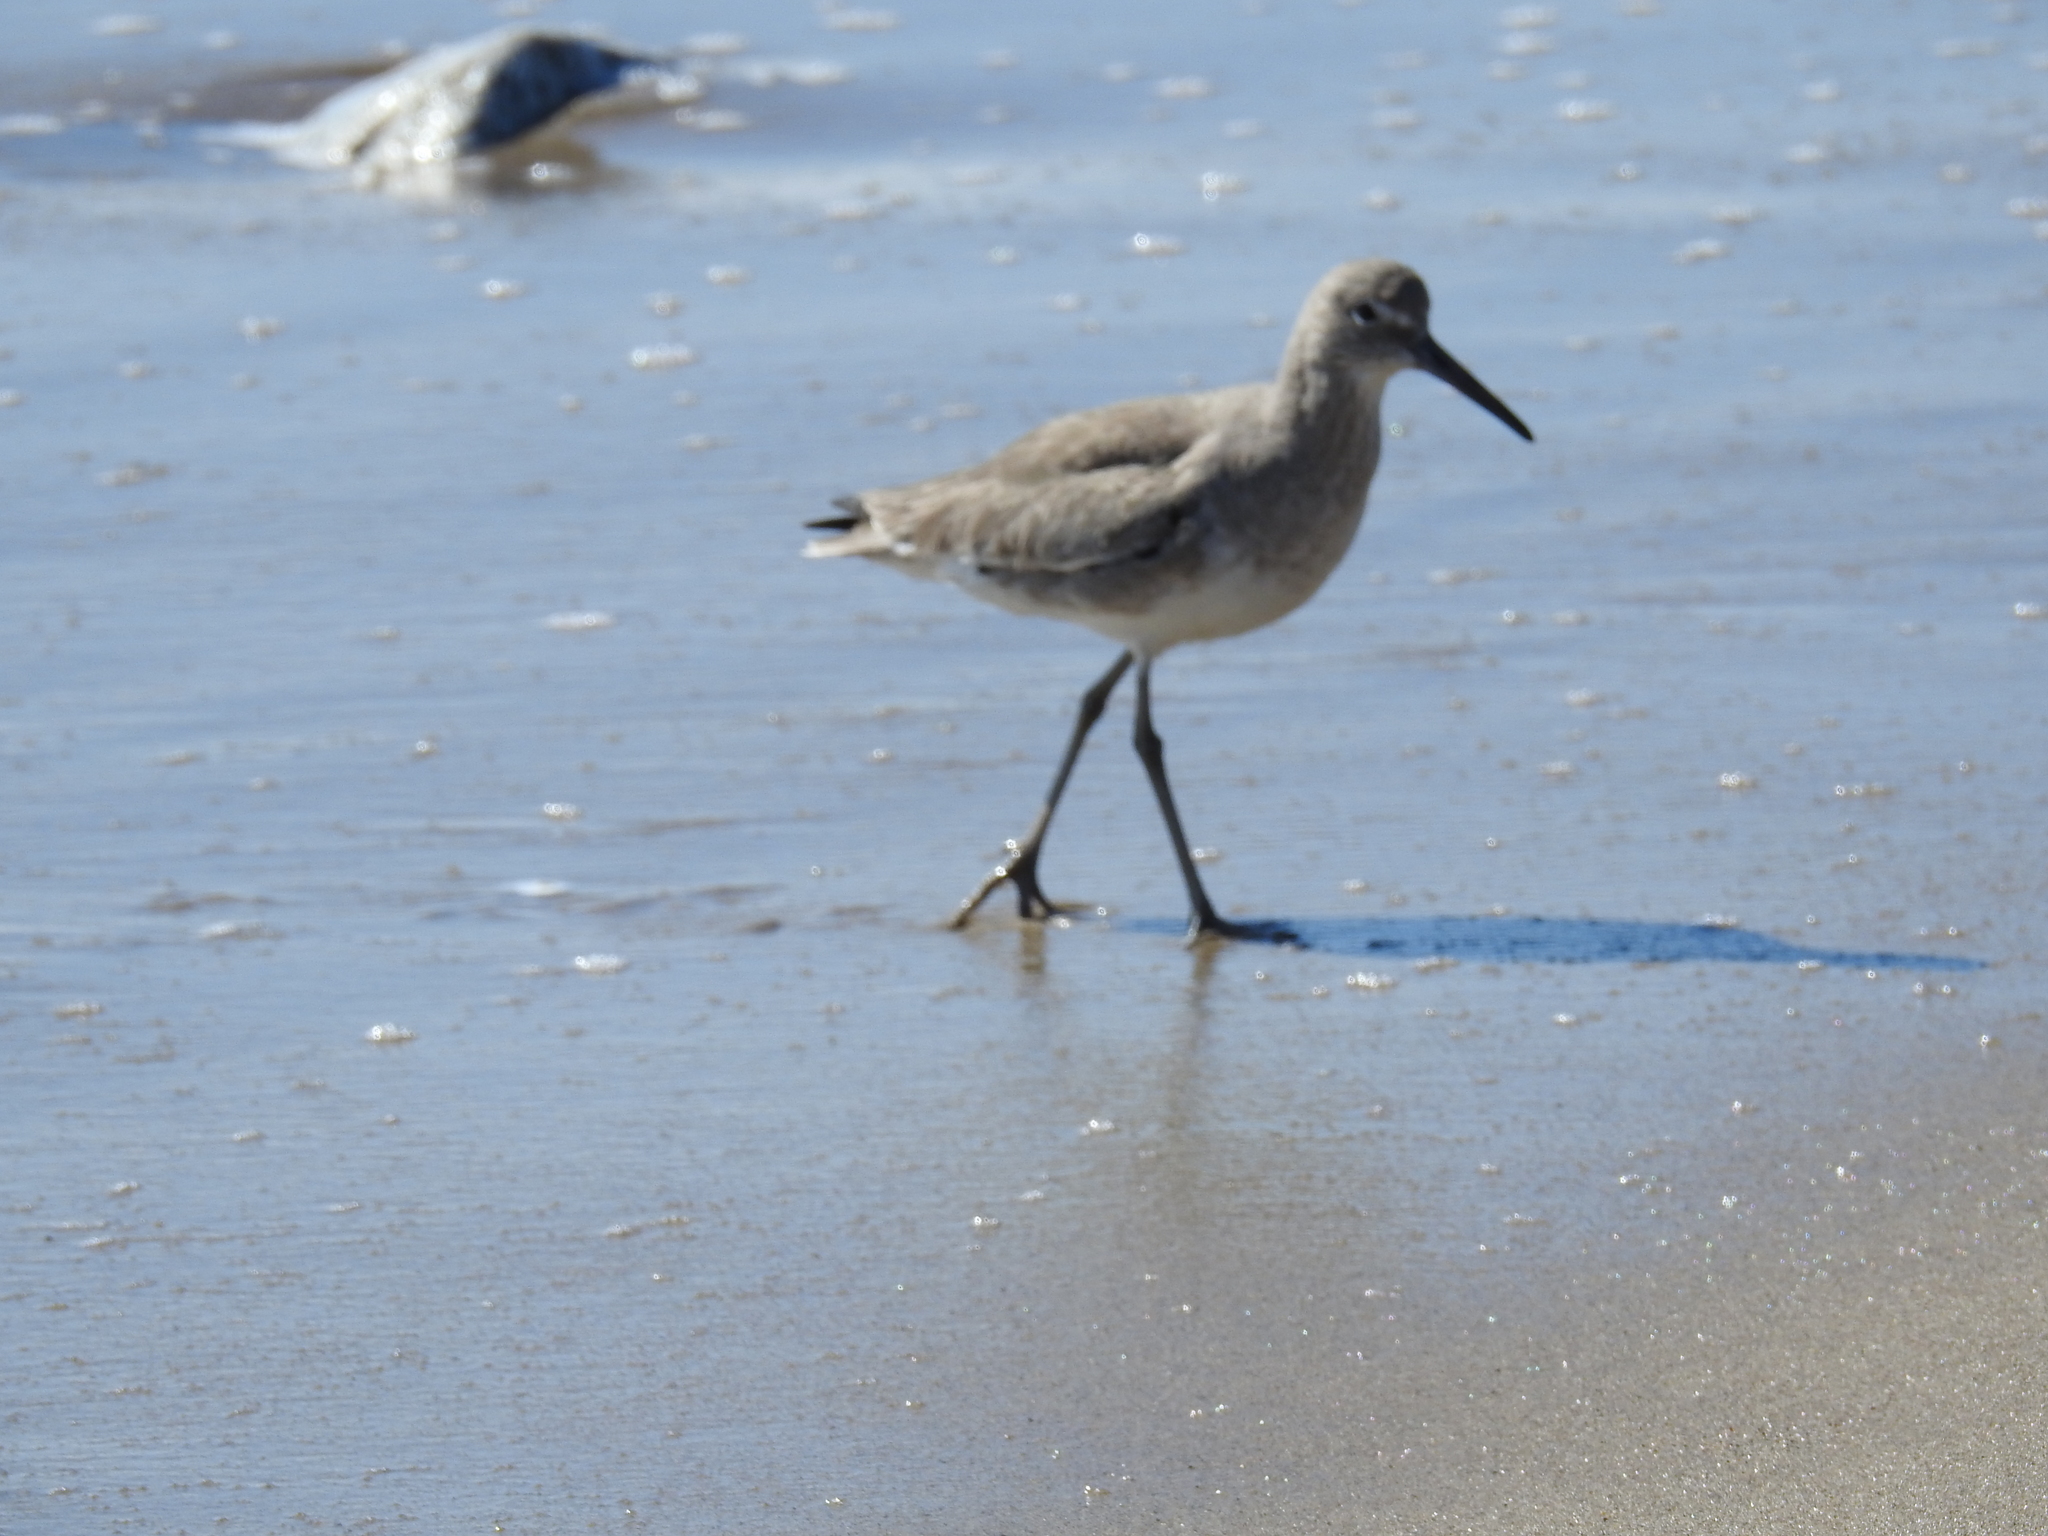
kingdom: Animalia
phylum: Chordata
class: Aves
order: Charadriiformes
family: Scolopacidae
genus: Tringa
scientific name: Tringa semipalmata
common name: Willet
